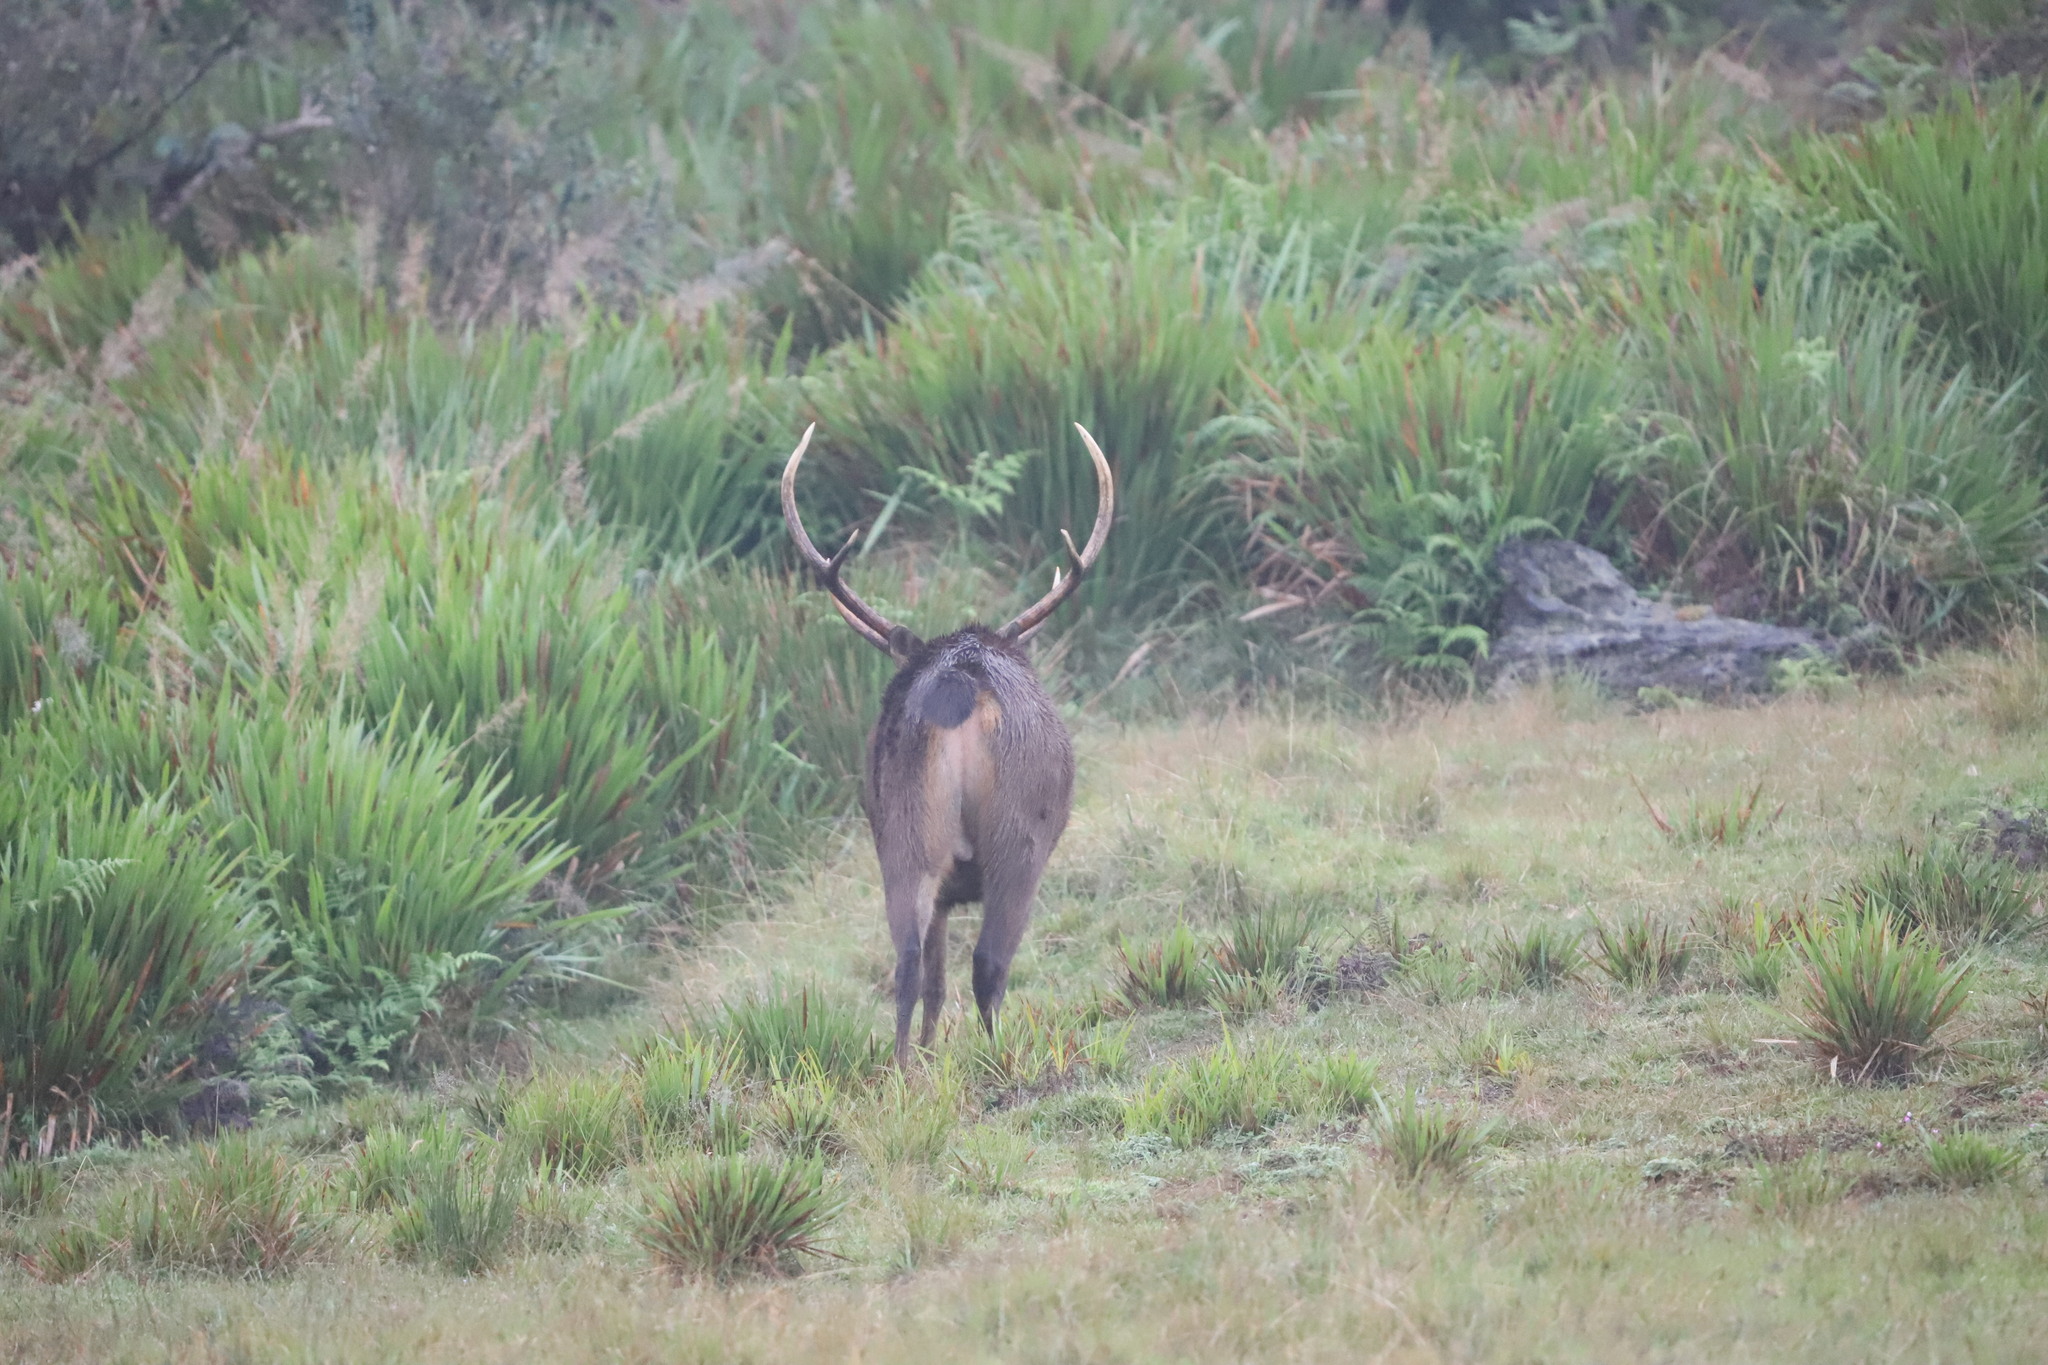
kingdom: Animalia
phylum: Chordata
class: Mammalia
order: Artiodactyla
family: Cervidae
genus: Rusa
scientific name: Rusa unicolor
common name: Sambar
